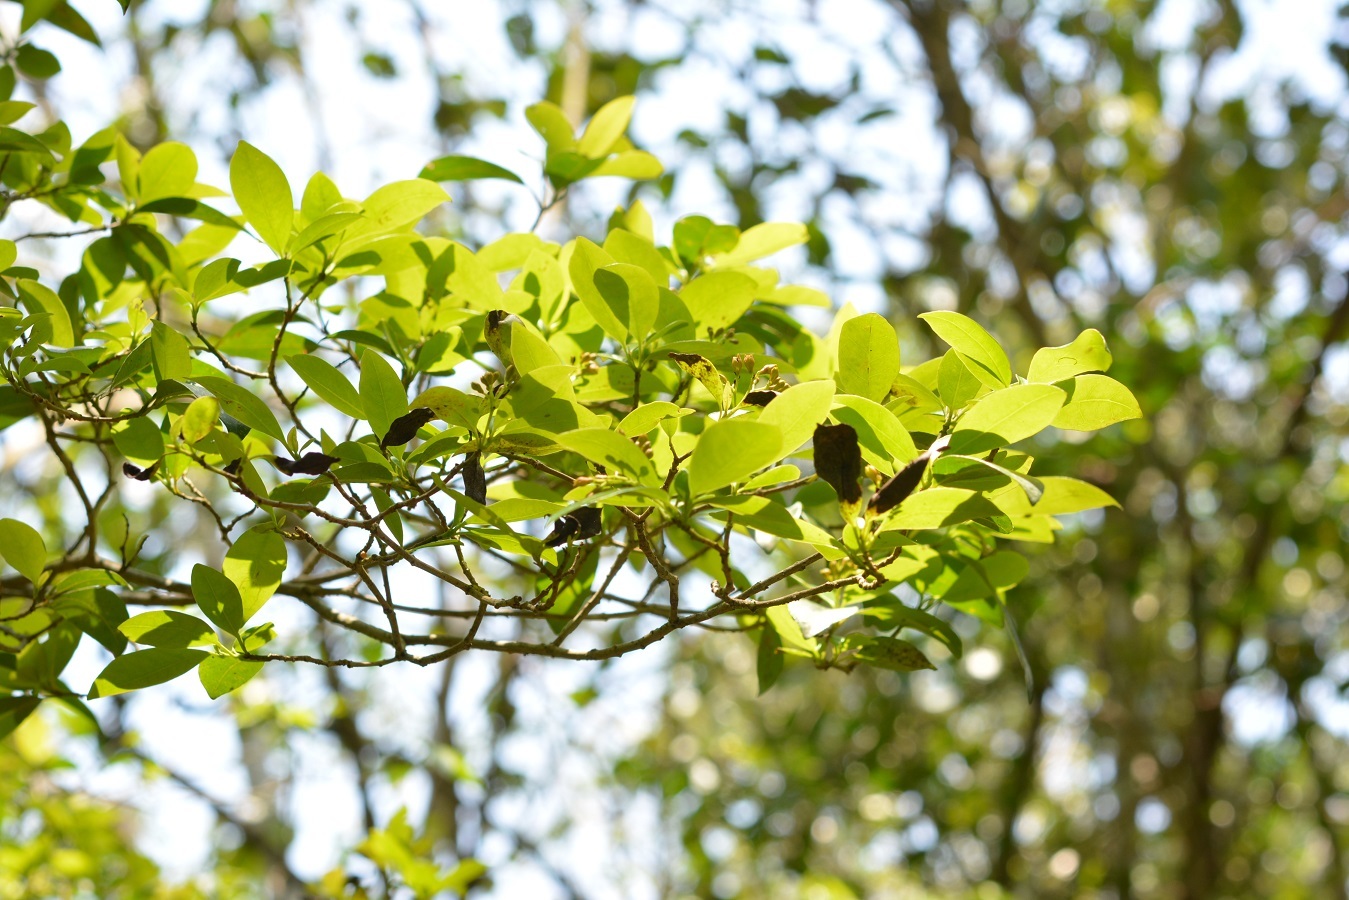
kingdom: Plantae
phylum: Tracheophyta
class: Magnoliopsida
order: Caryophyllales
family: Nyctaginaceae
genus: Neea
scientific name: Neea tenuis
